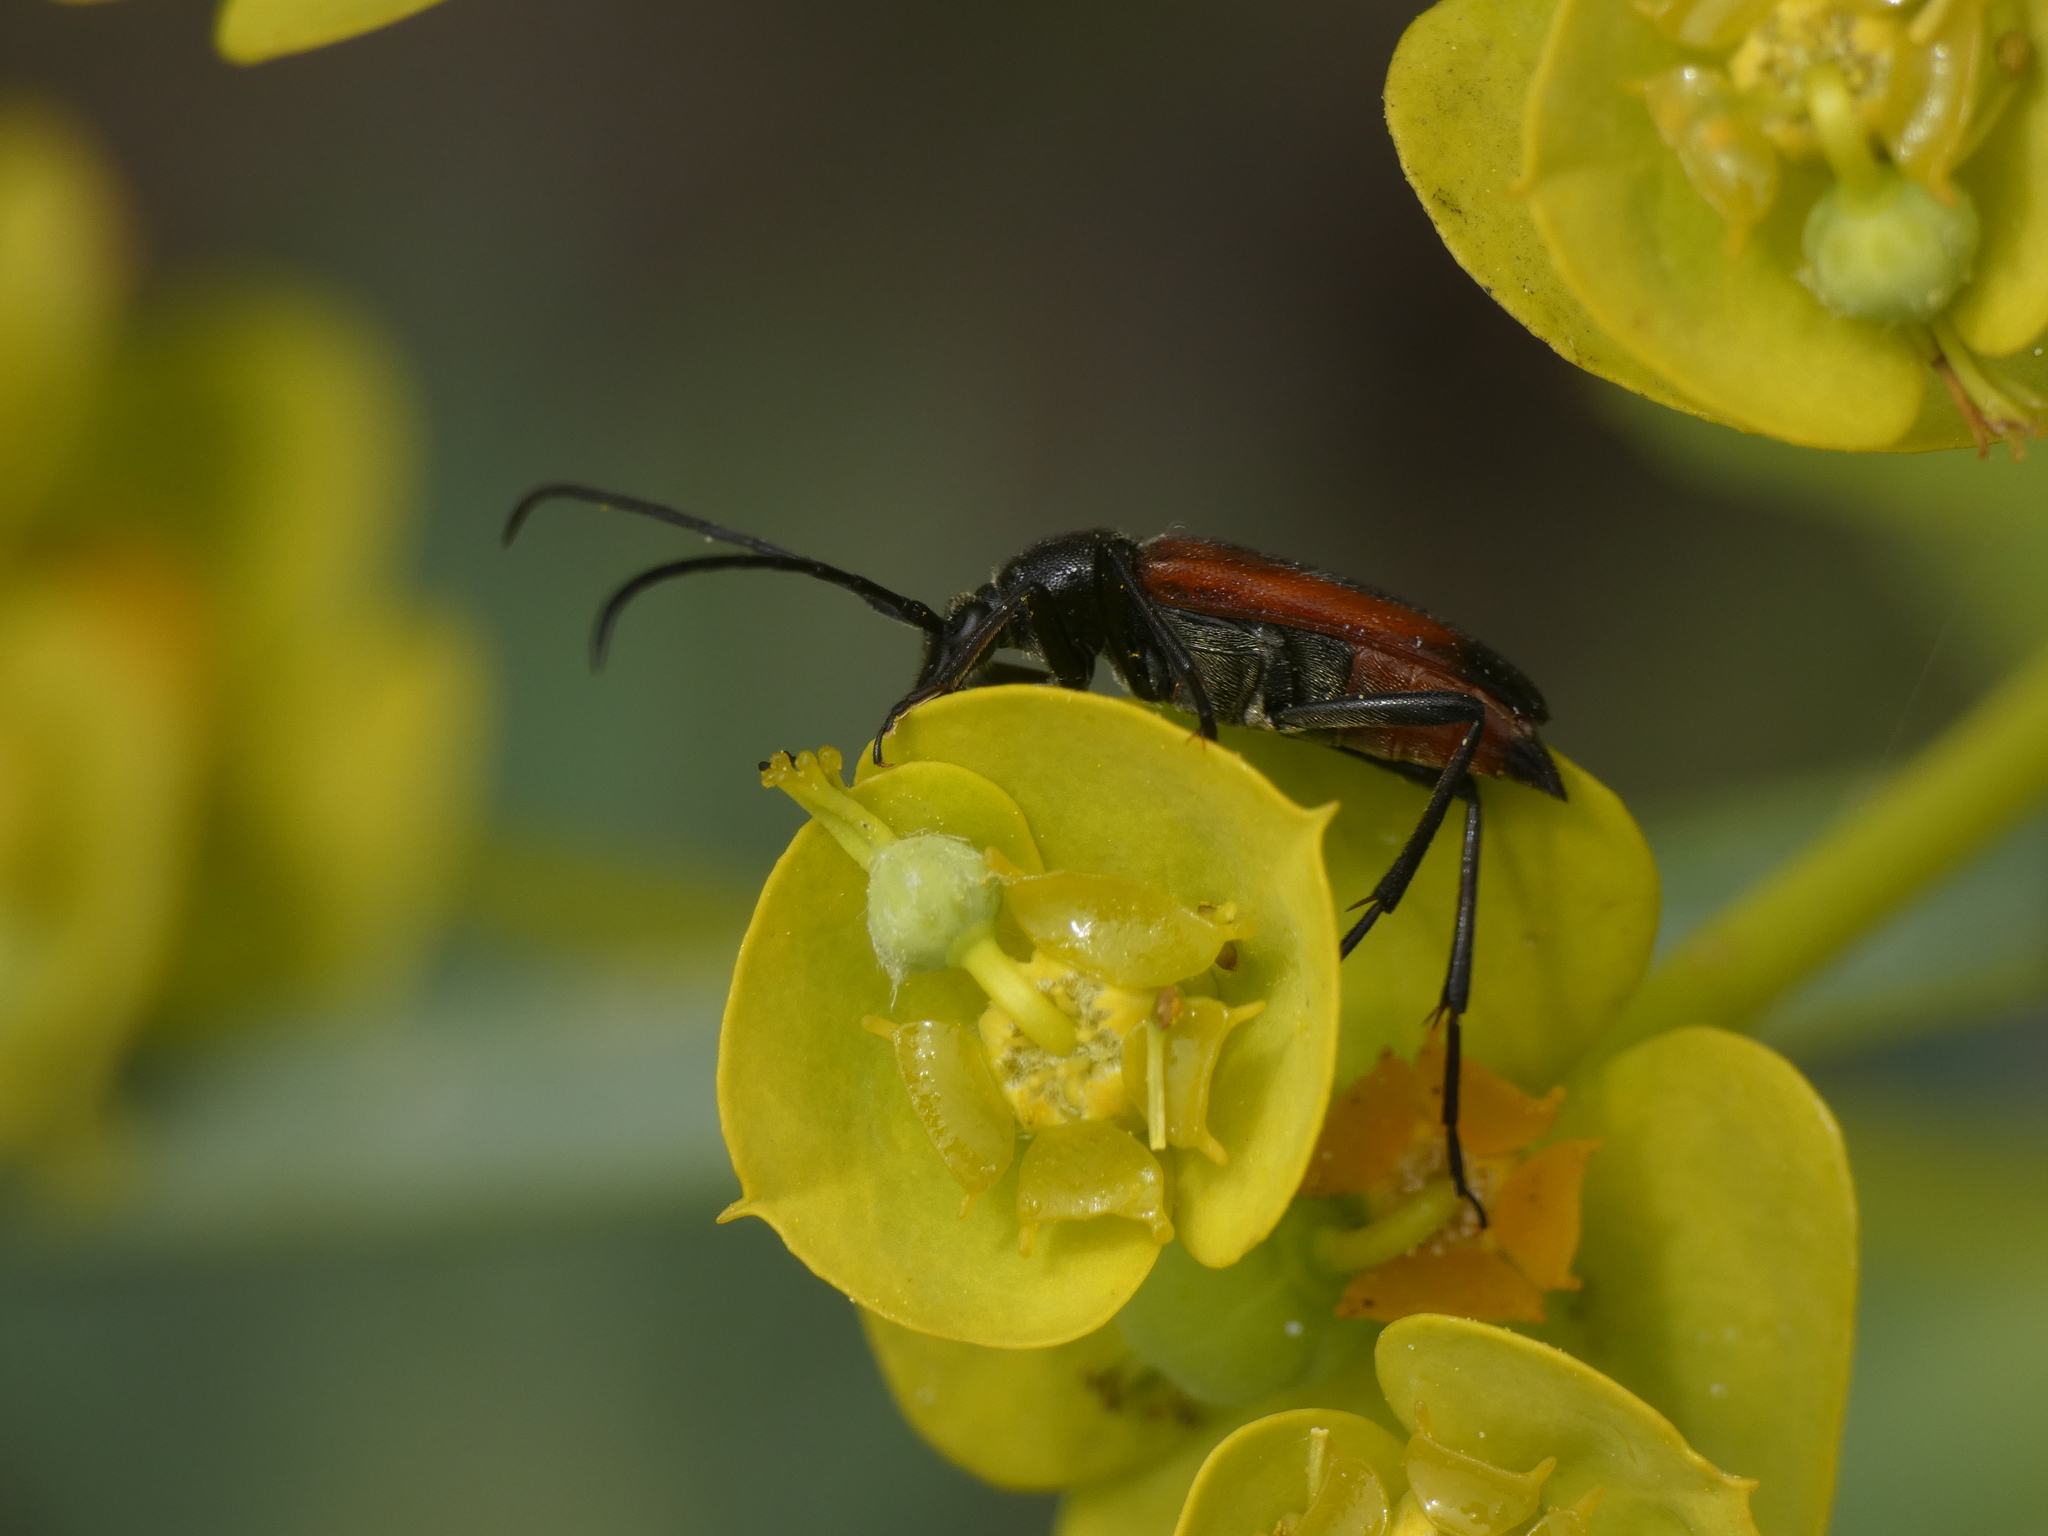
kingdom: Animalia
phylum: Arthropoda
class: Insecta
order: Coleoptera
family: Cerambycidae
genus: Stenurella
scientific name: Stenurella bifasciata
